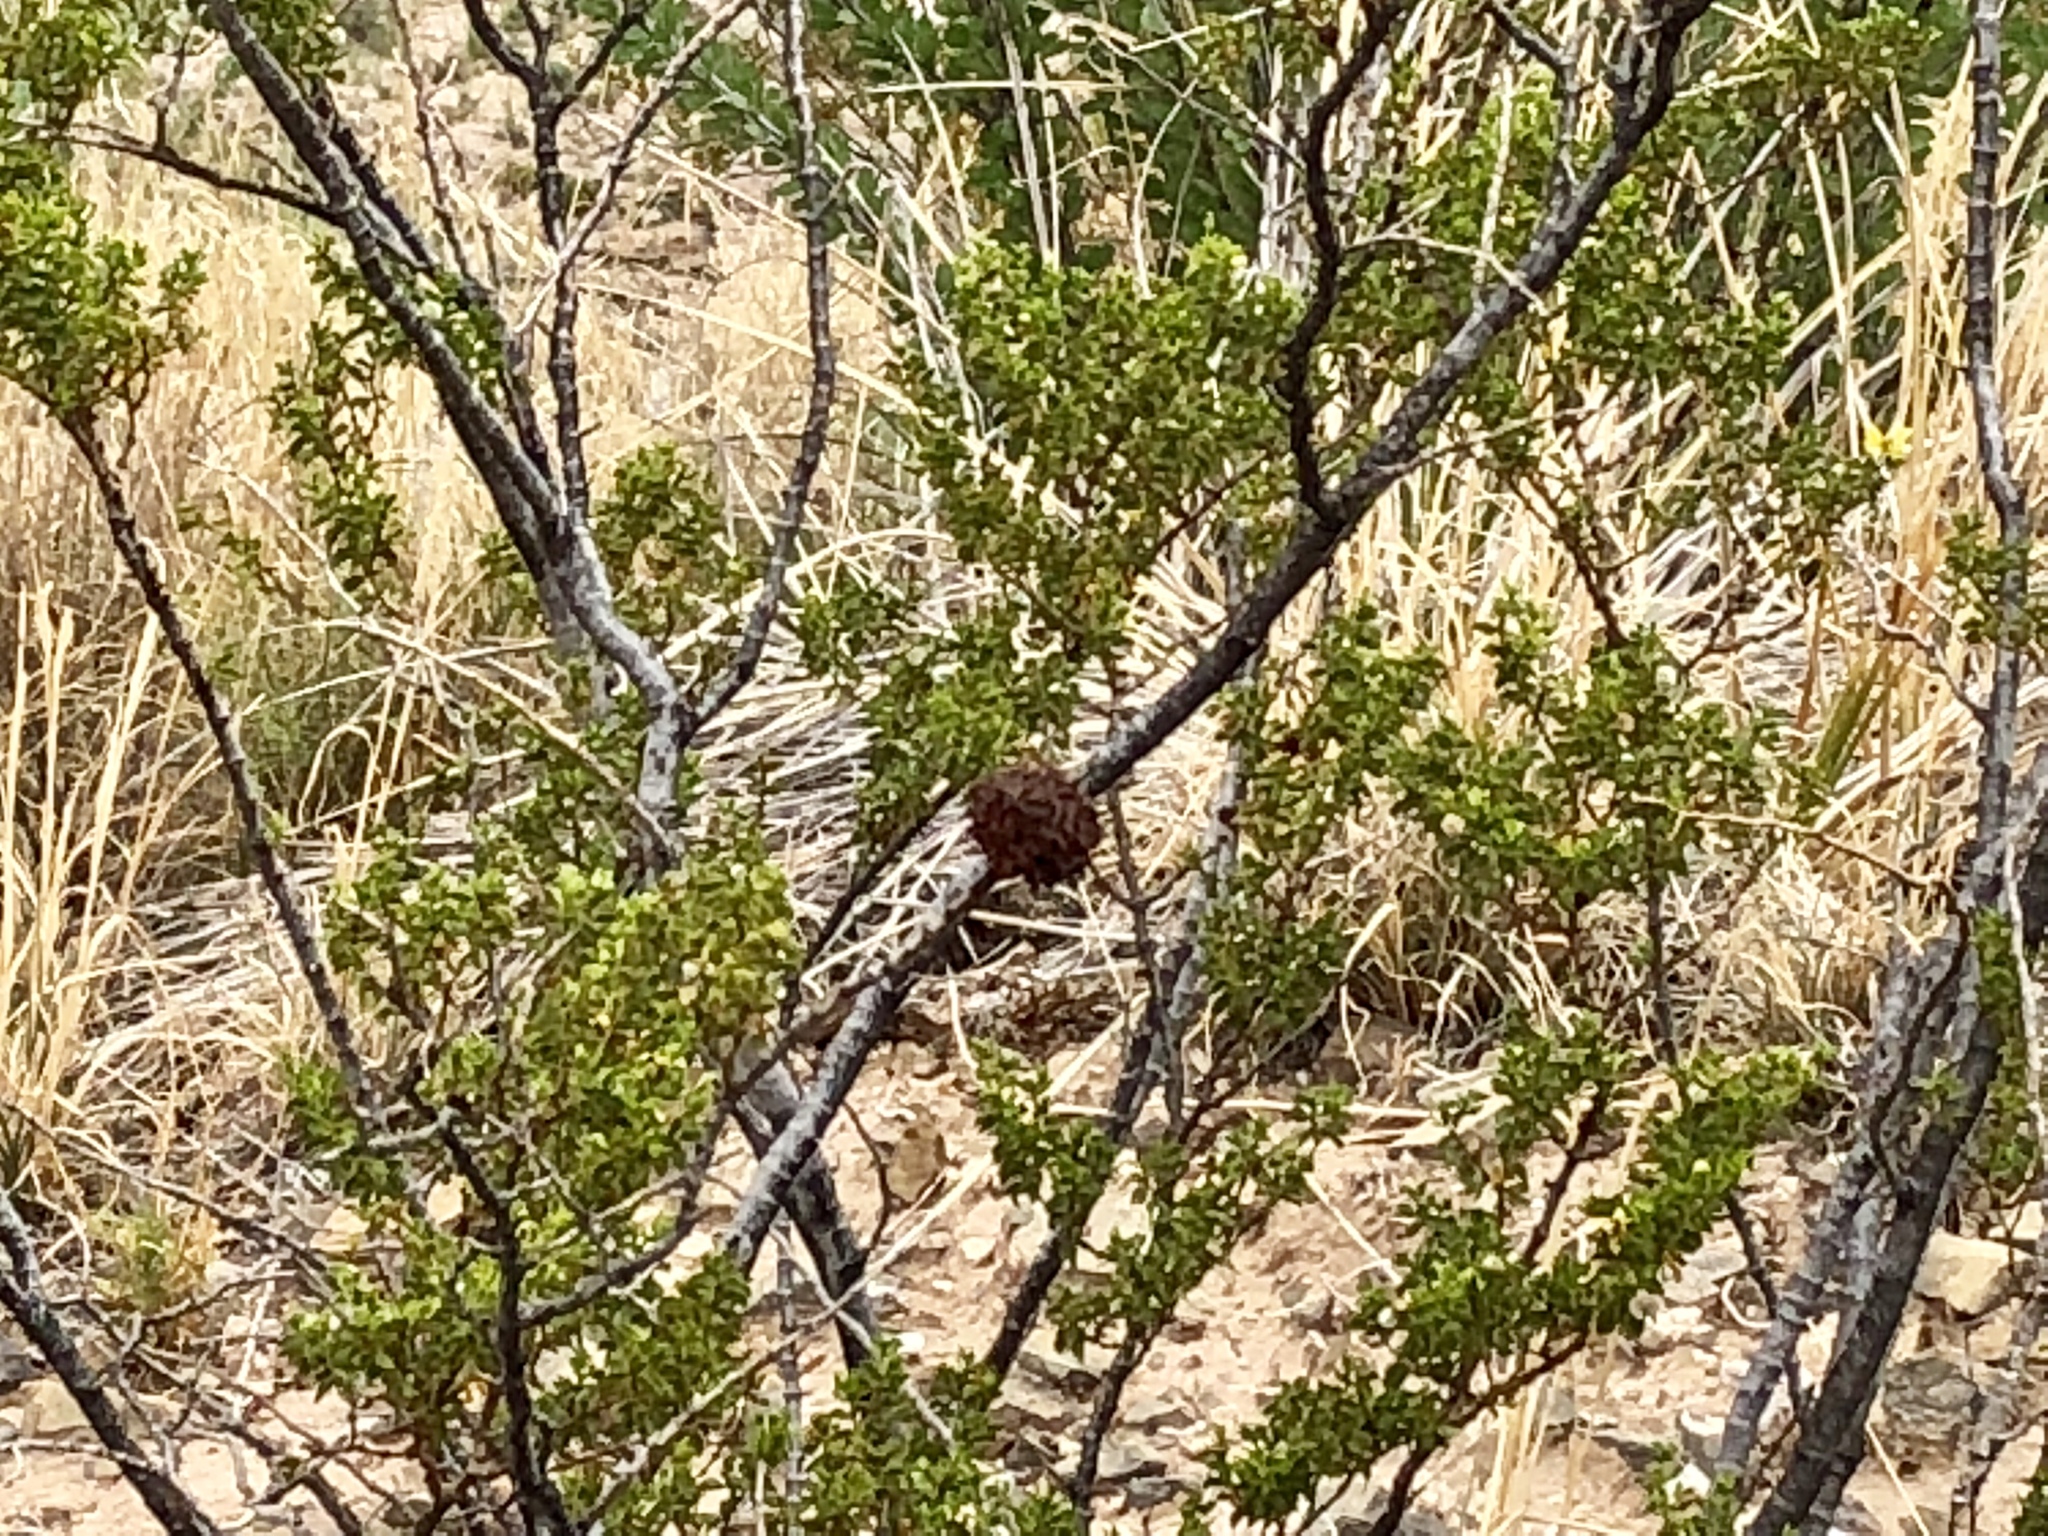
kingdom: Animalia
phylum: Arthropoda
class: Insecta
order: Diptera
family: Cecidomyiidae
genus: Asphondylia
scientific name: Asphondylia auripila
